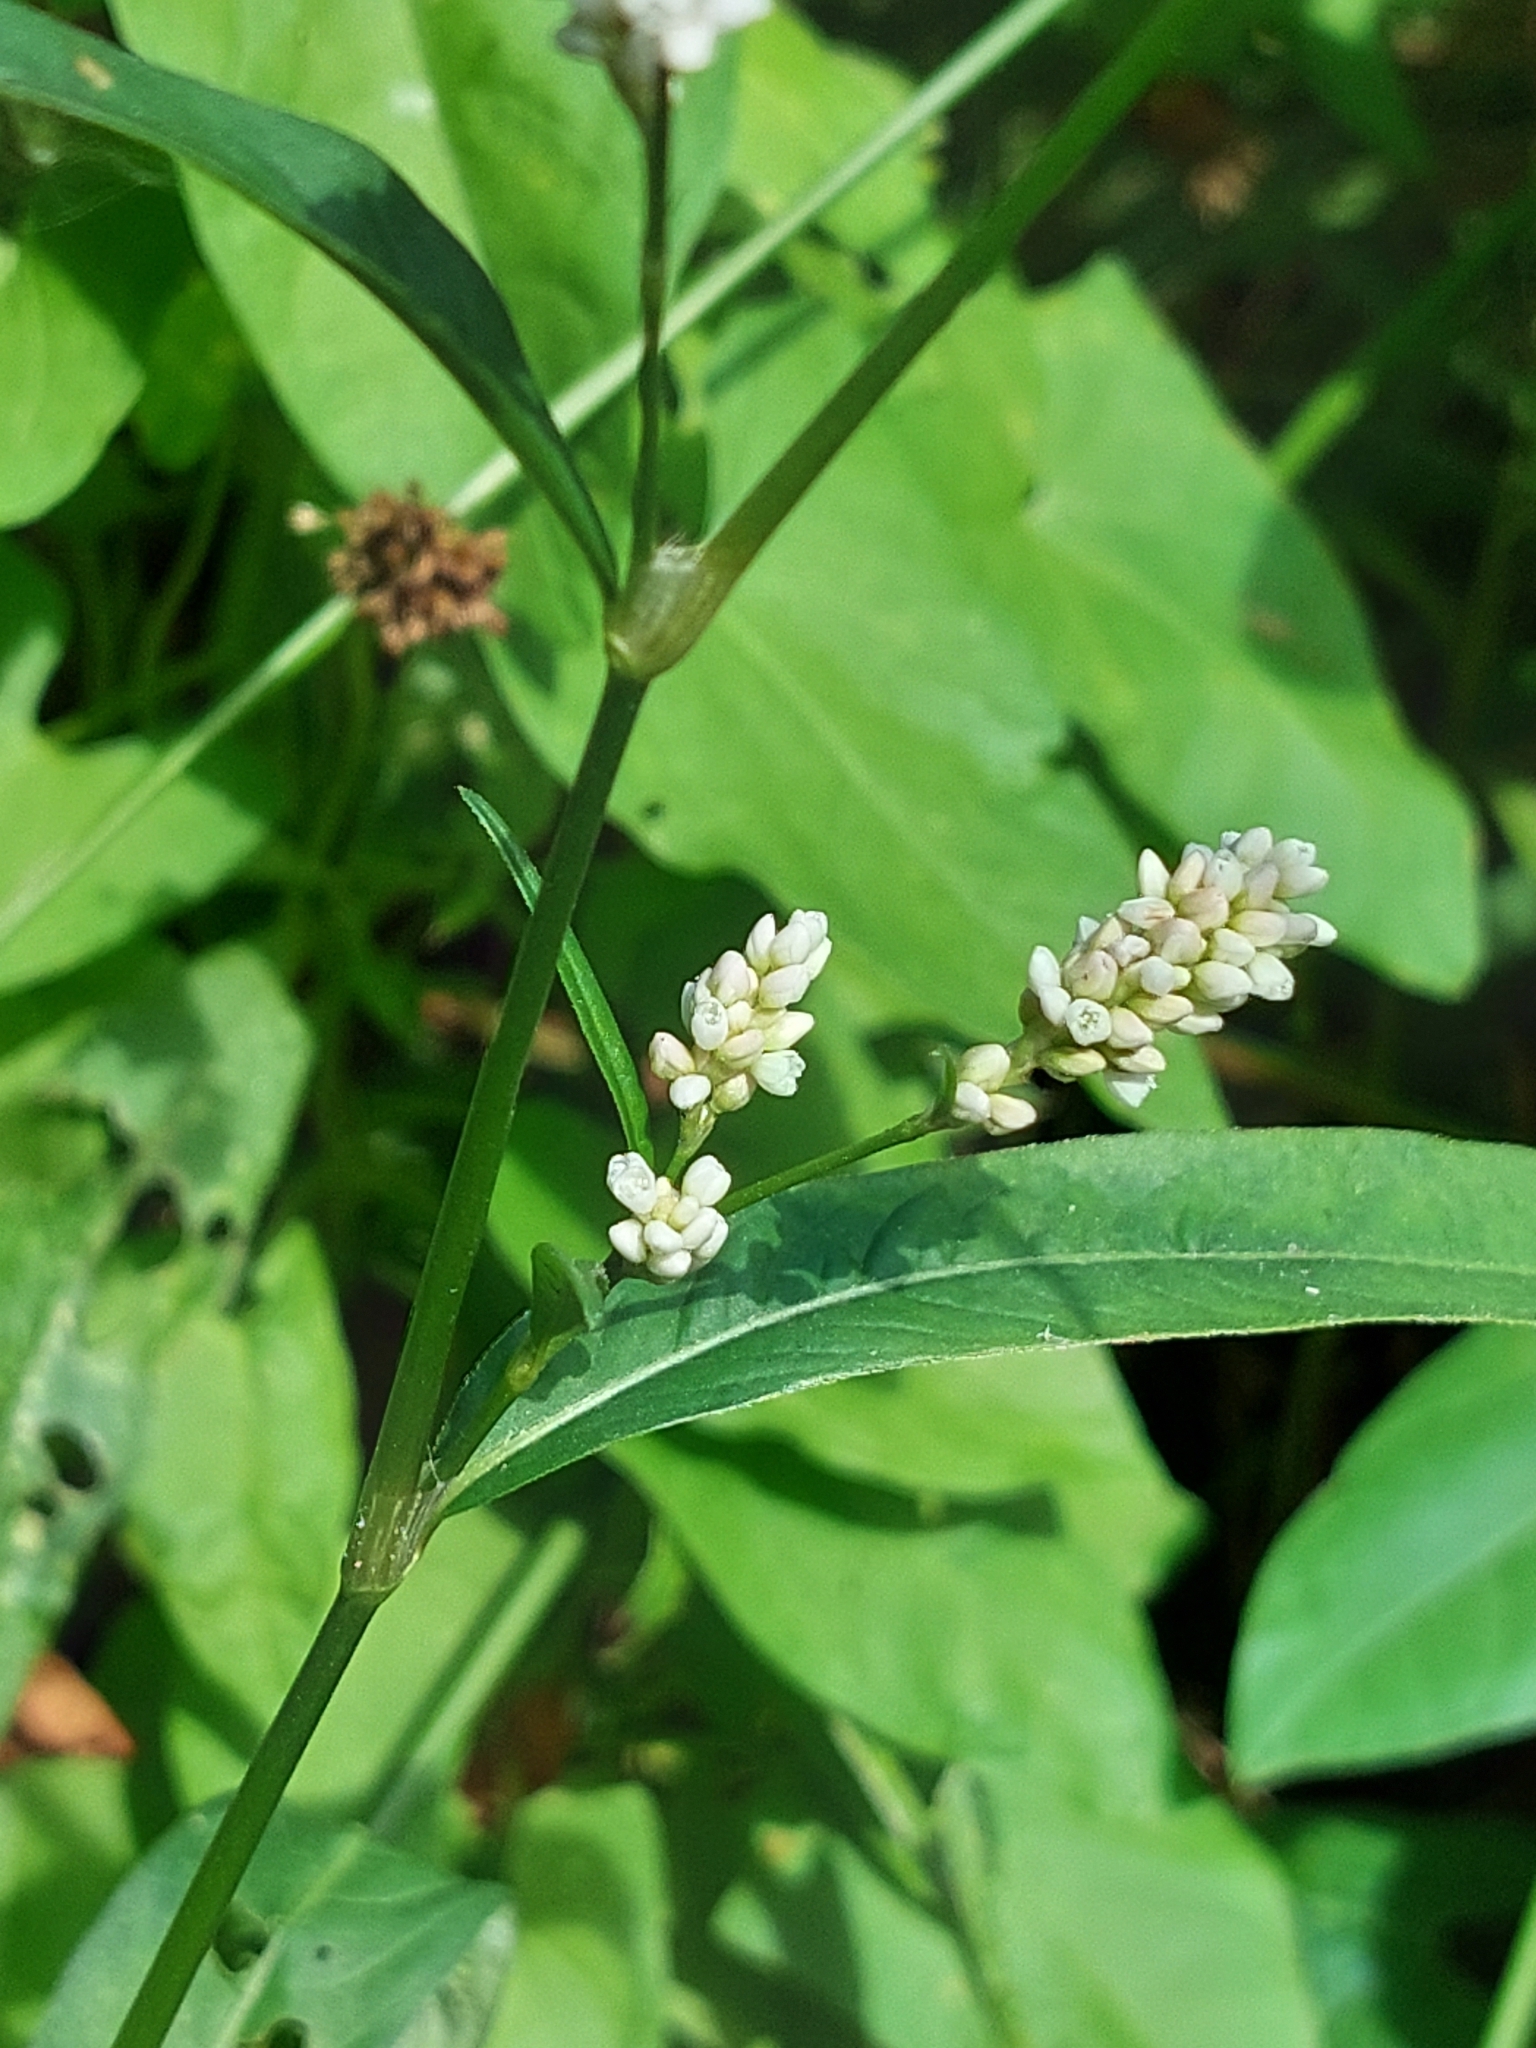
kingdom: Plantae
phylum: Tracheophyta
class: Magnoliopsida
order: Caryophyllales
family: Polygonaceae
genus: Persicaria
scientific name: Persicaria maculosa
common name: Redshank
